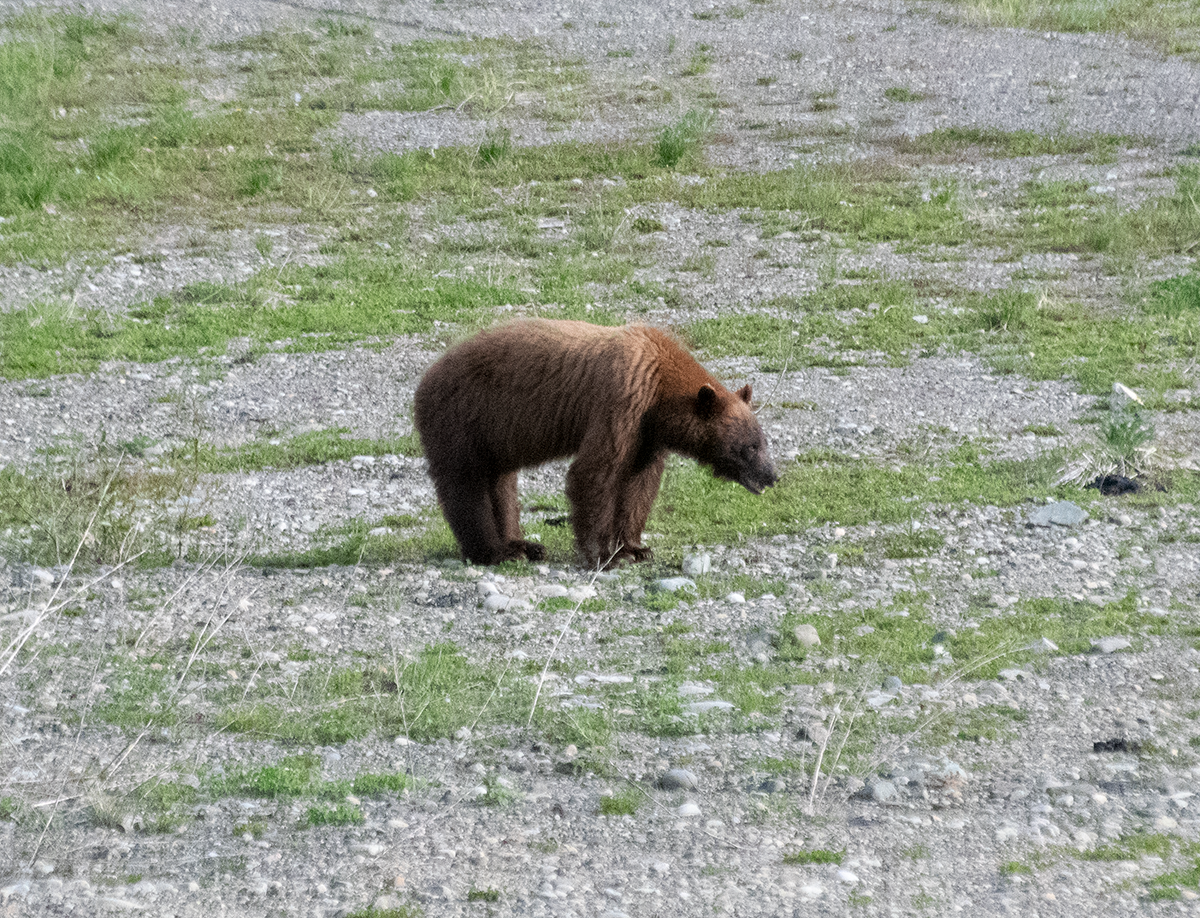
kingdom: Animalia
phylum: Chordata
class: Mammalia
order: Carnivora
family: Ursidae
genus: Ursus
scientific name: Ursus americanus
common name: American black bear
